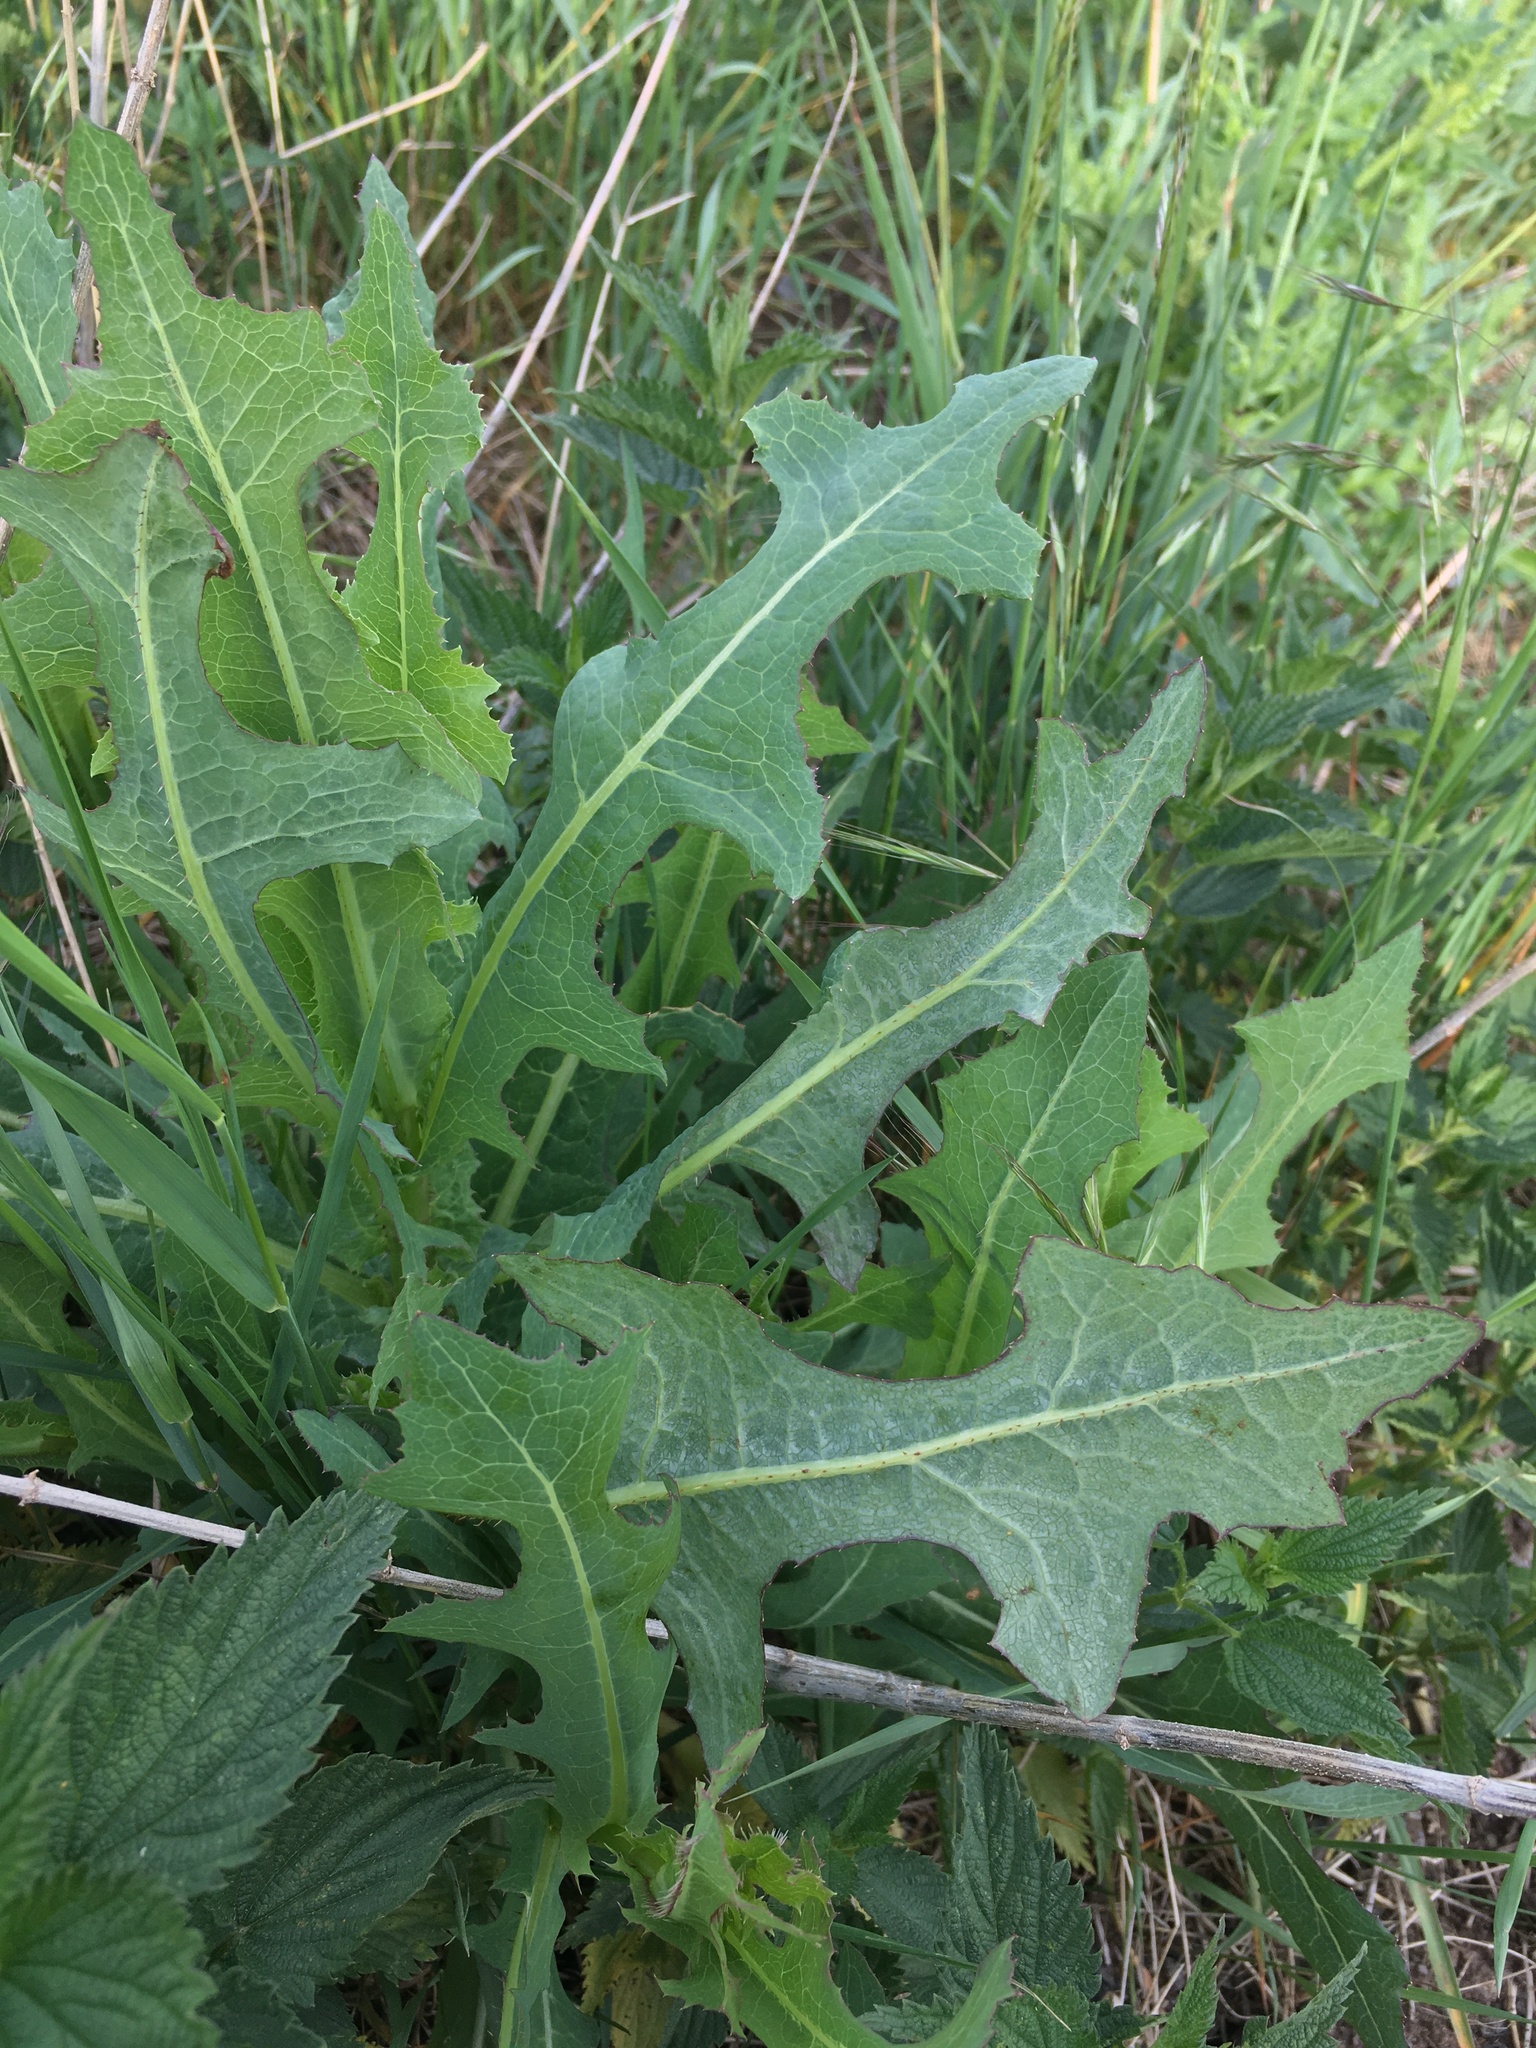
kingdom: Plantae
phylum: Tracheophyta
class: Magnoliopsida
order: Asterales
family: Asteraceae
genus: Lactuca
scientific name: Lactuca serriola
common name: Prickly lettuce
